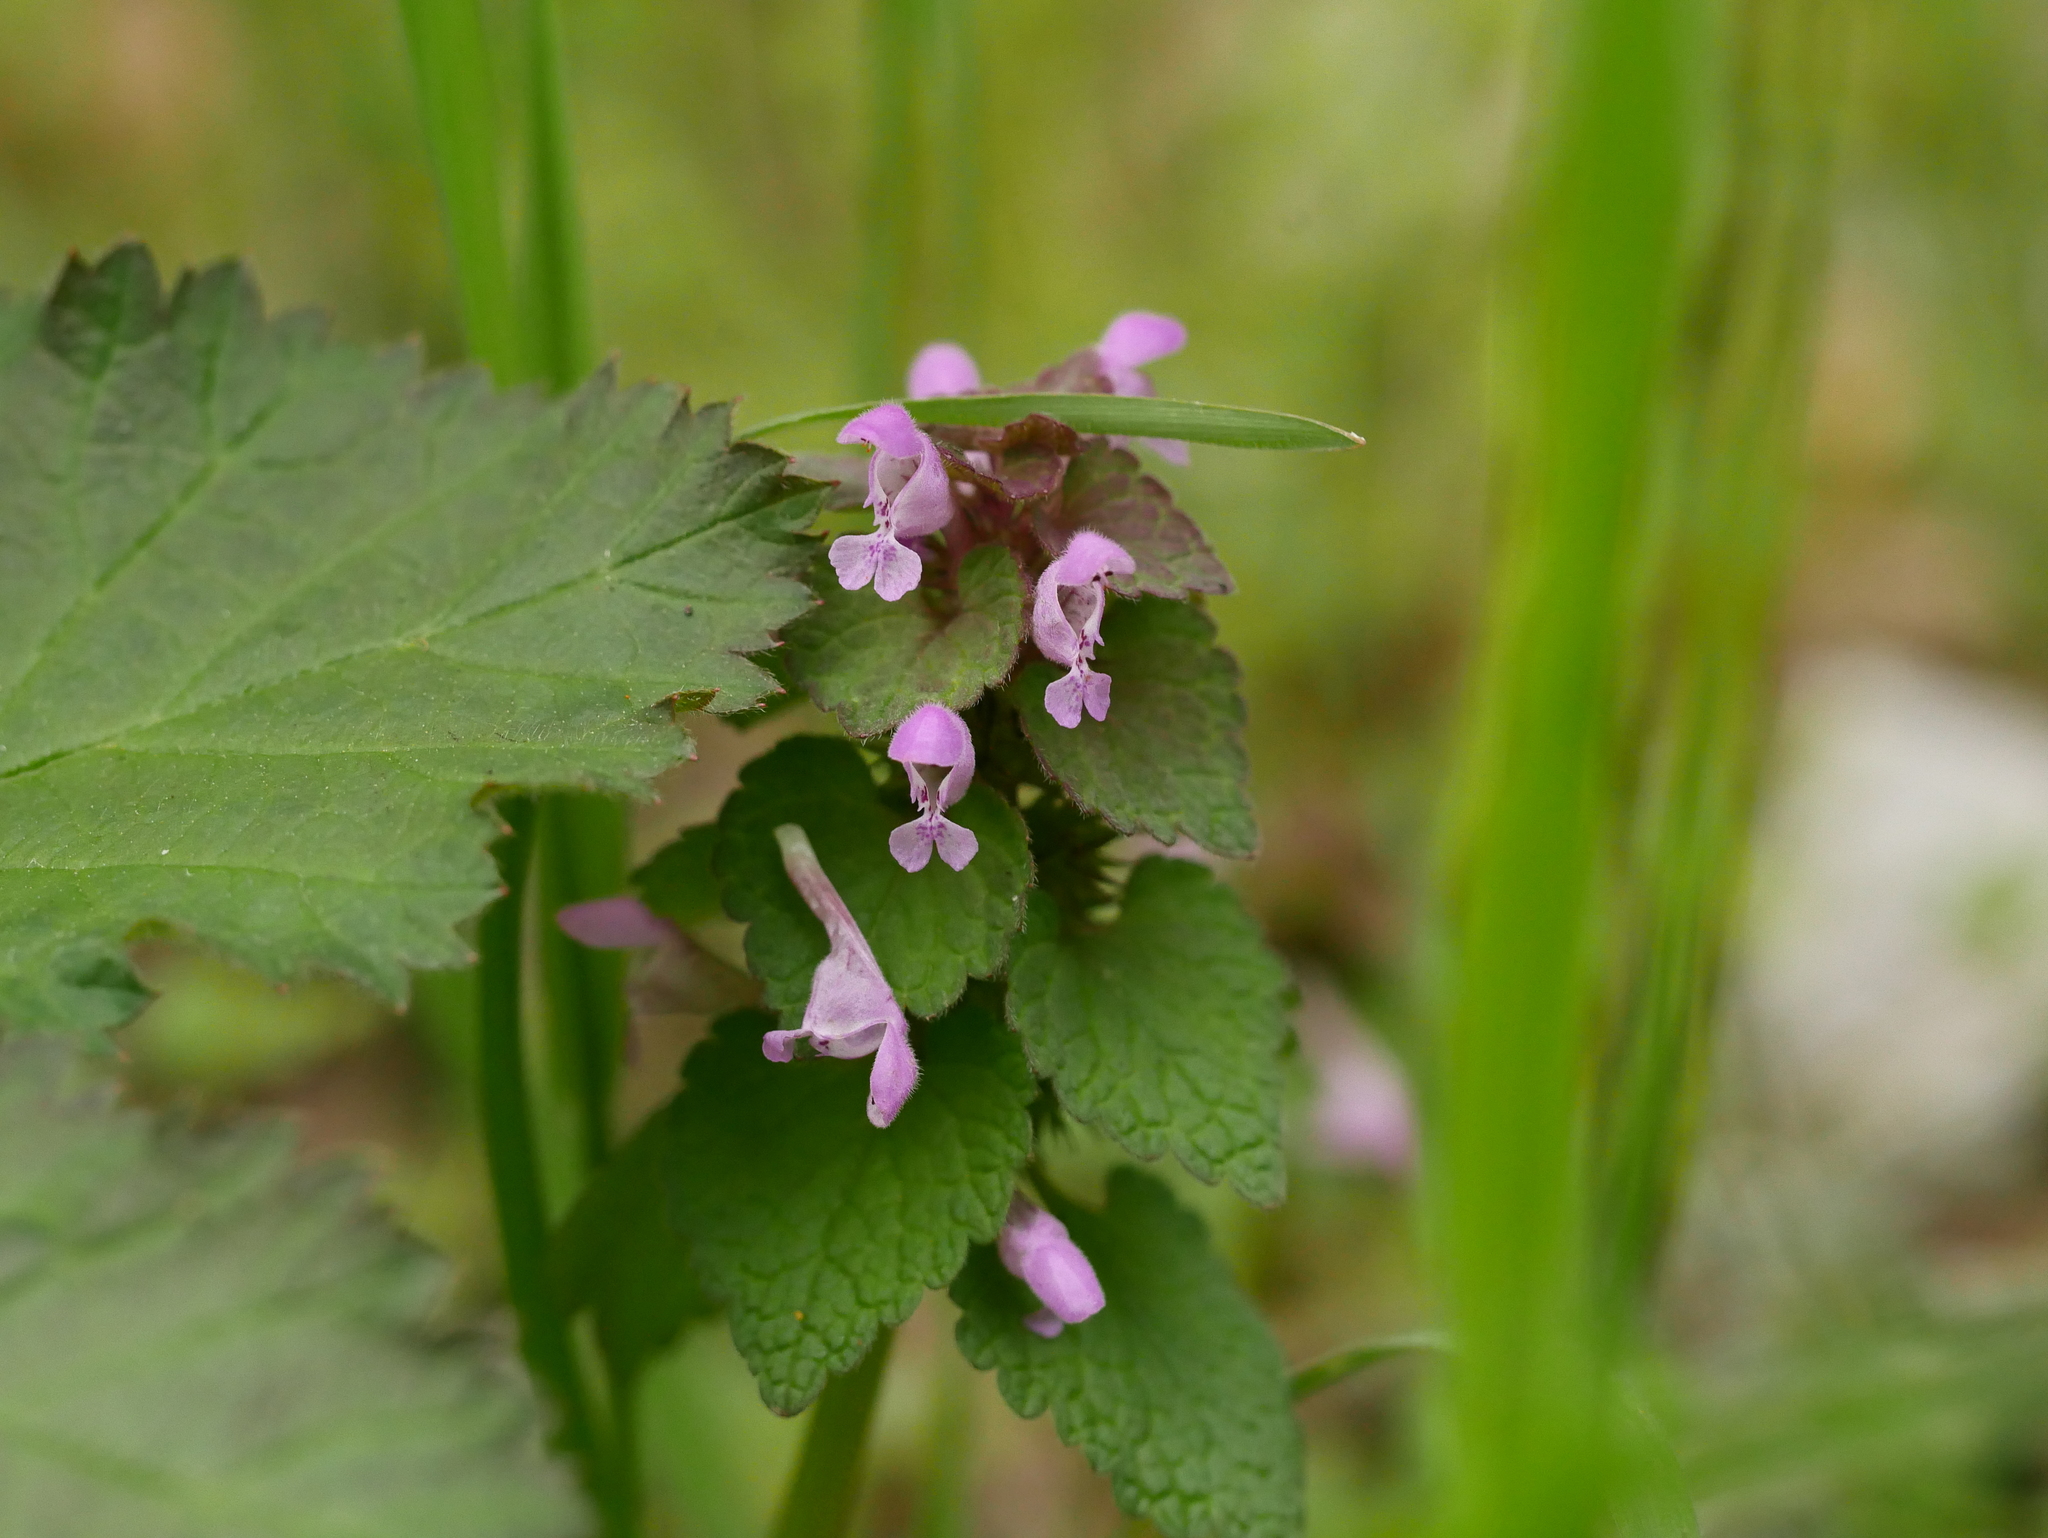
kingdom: Plantae
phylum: Tracheophyta
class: Magnoliopsida
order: Lamiales
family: Lamiaceae
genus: Lamium
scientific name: Lamium purpureum
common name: Red dead-nettle
